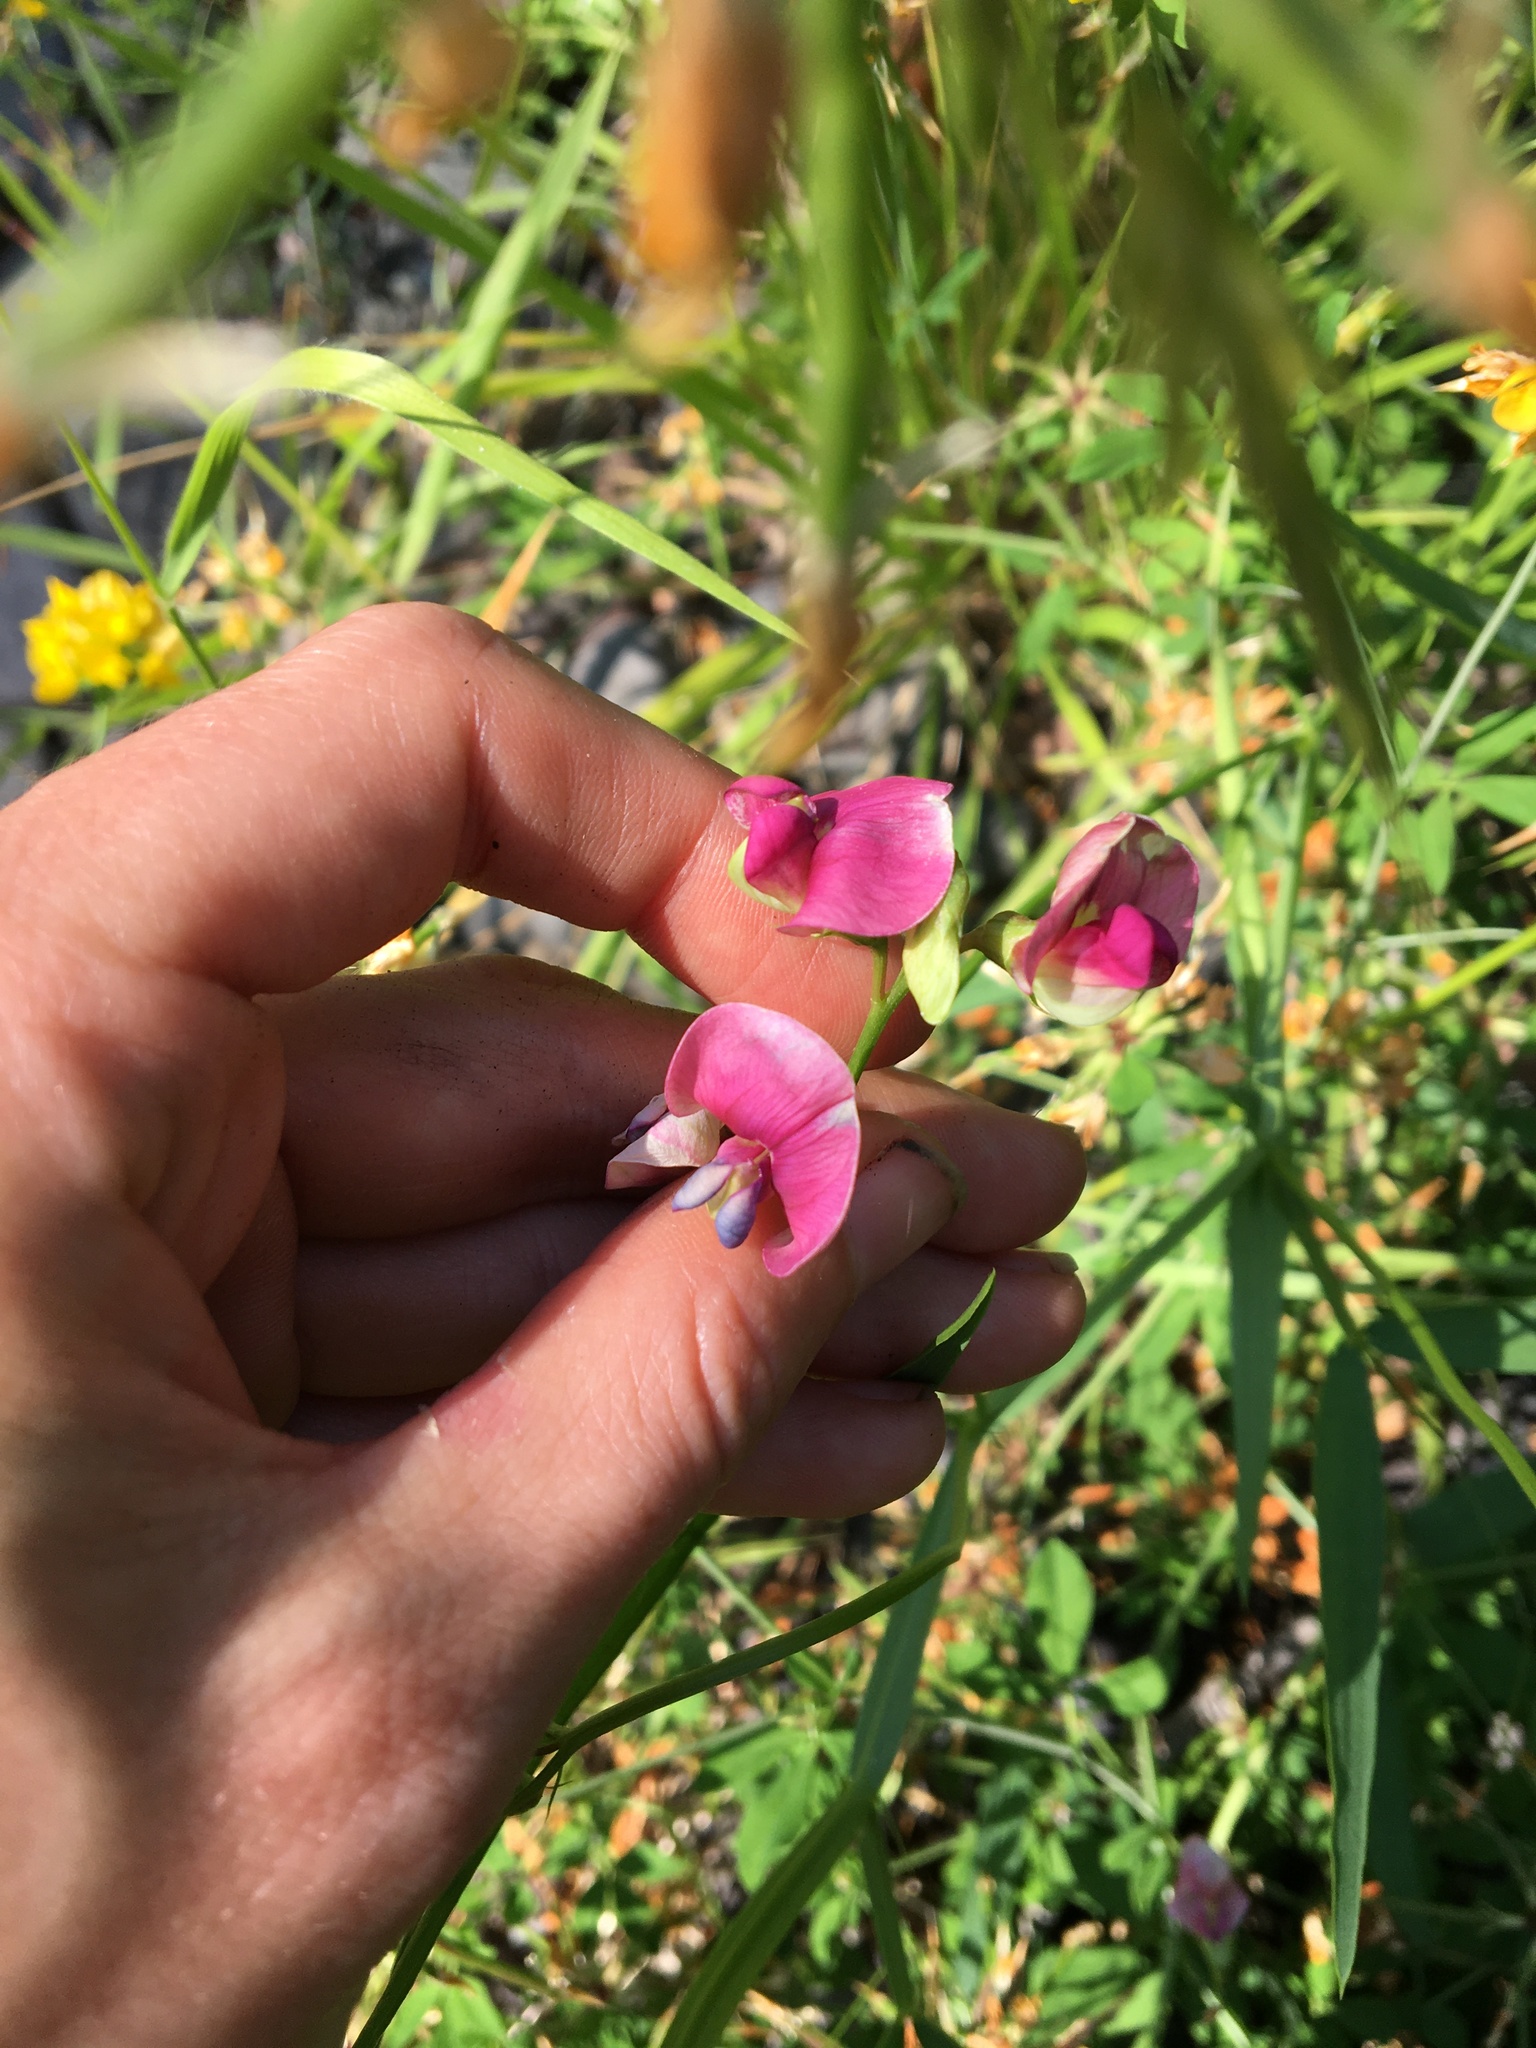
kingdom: Plantae
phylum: Tracheophyta
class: Magnoliopsida
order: Fabales
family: Fabaceae
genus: Lathyrus
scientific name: Lathyrus sylvestris
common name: Flat pea
